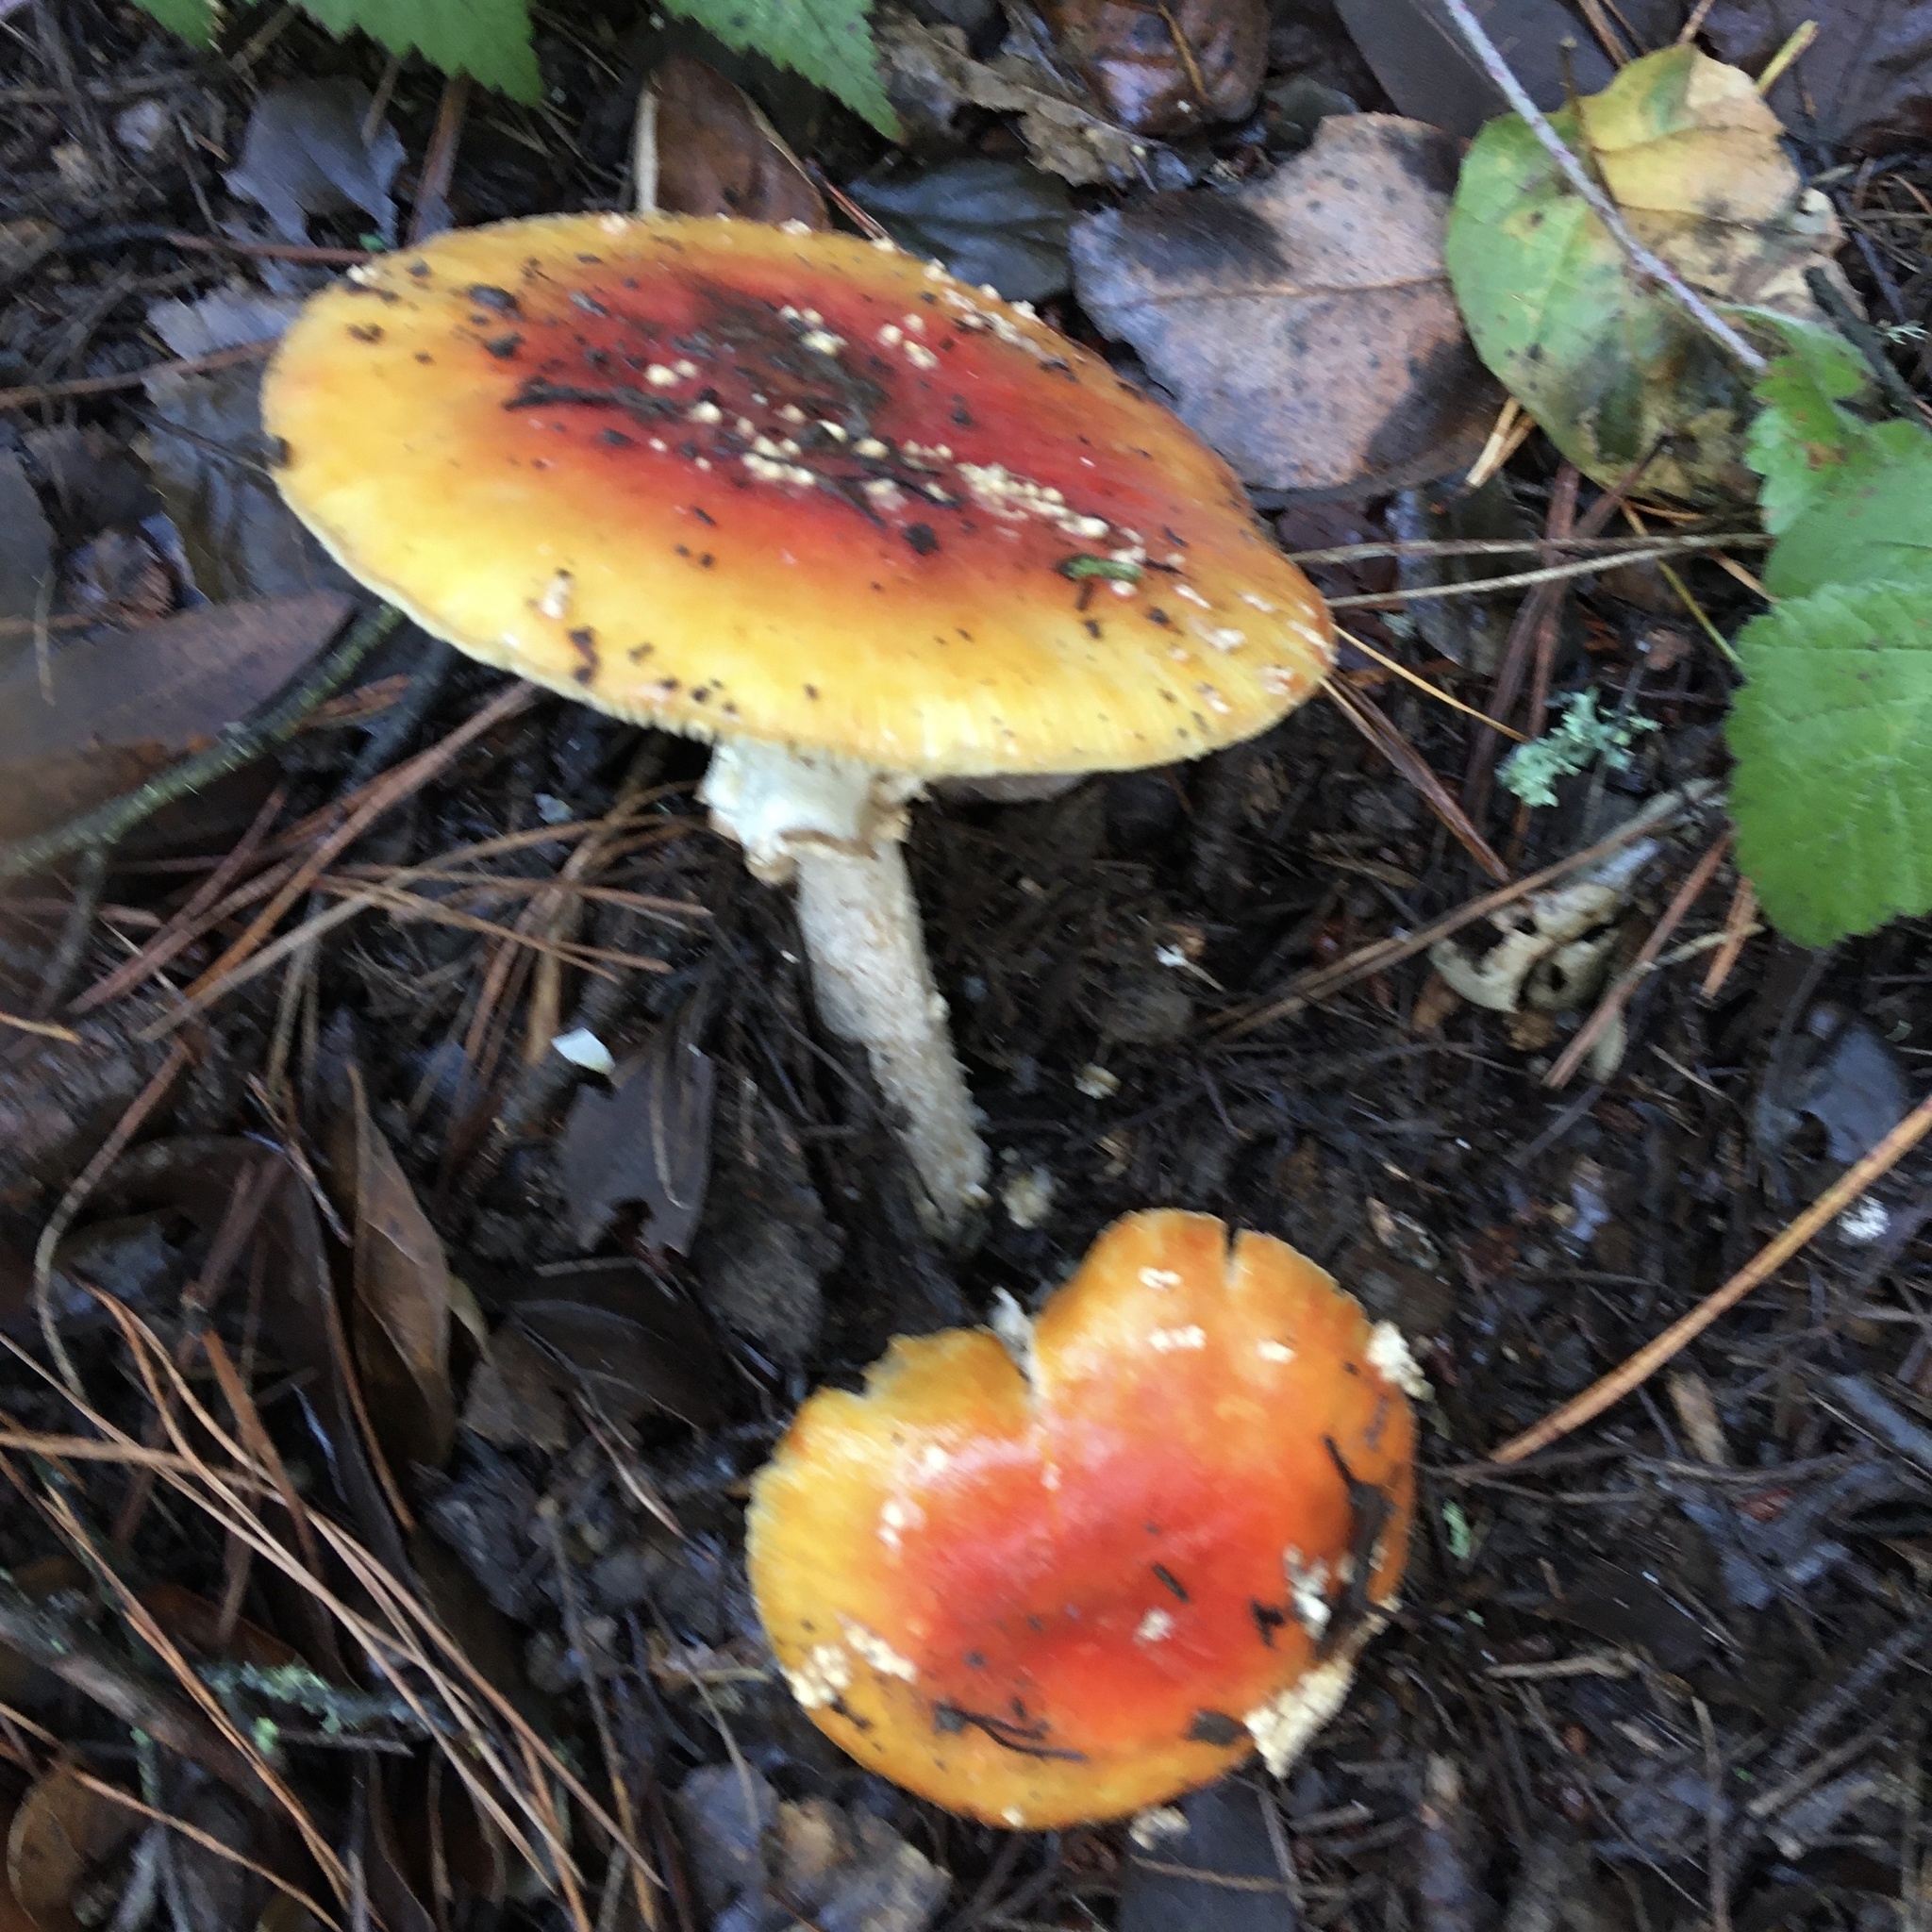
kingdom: Fungi
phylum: Basidiomycota
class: Agaricomycetes
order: Agaricales
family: Amanitaceae
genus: Amanita
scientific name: Amanita muscaria
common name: Fly agaric
